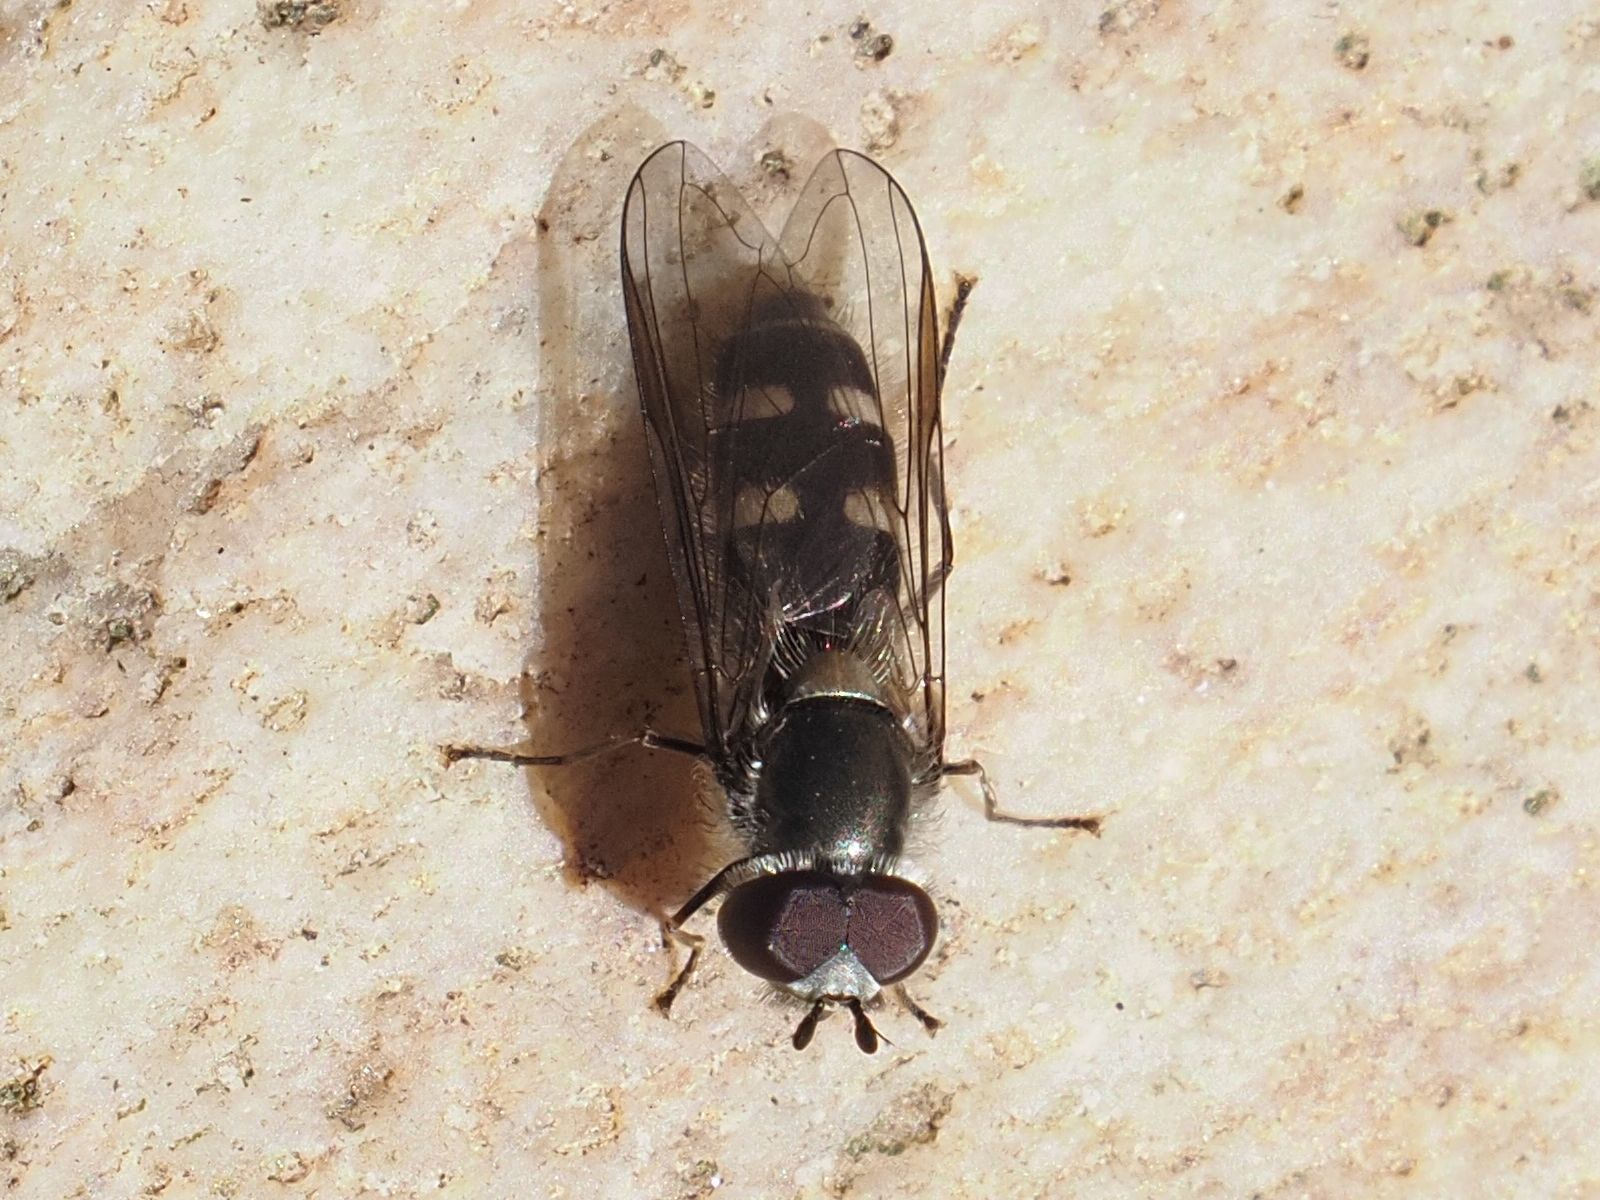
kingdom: Animalia
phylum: Arthropoda
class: Insecta
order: Diptera
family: Syrphidae
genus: Melangyna
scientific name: Melangyna pavlovskyi
